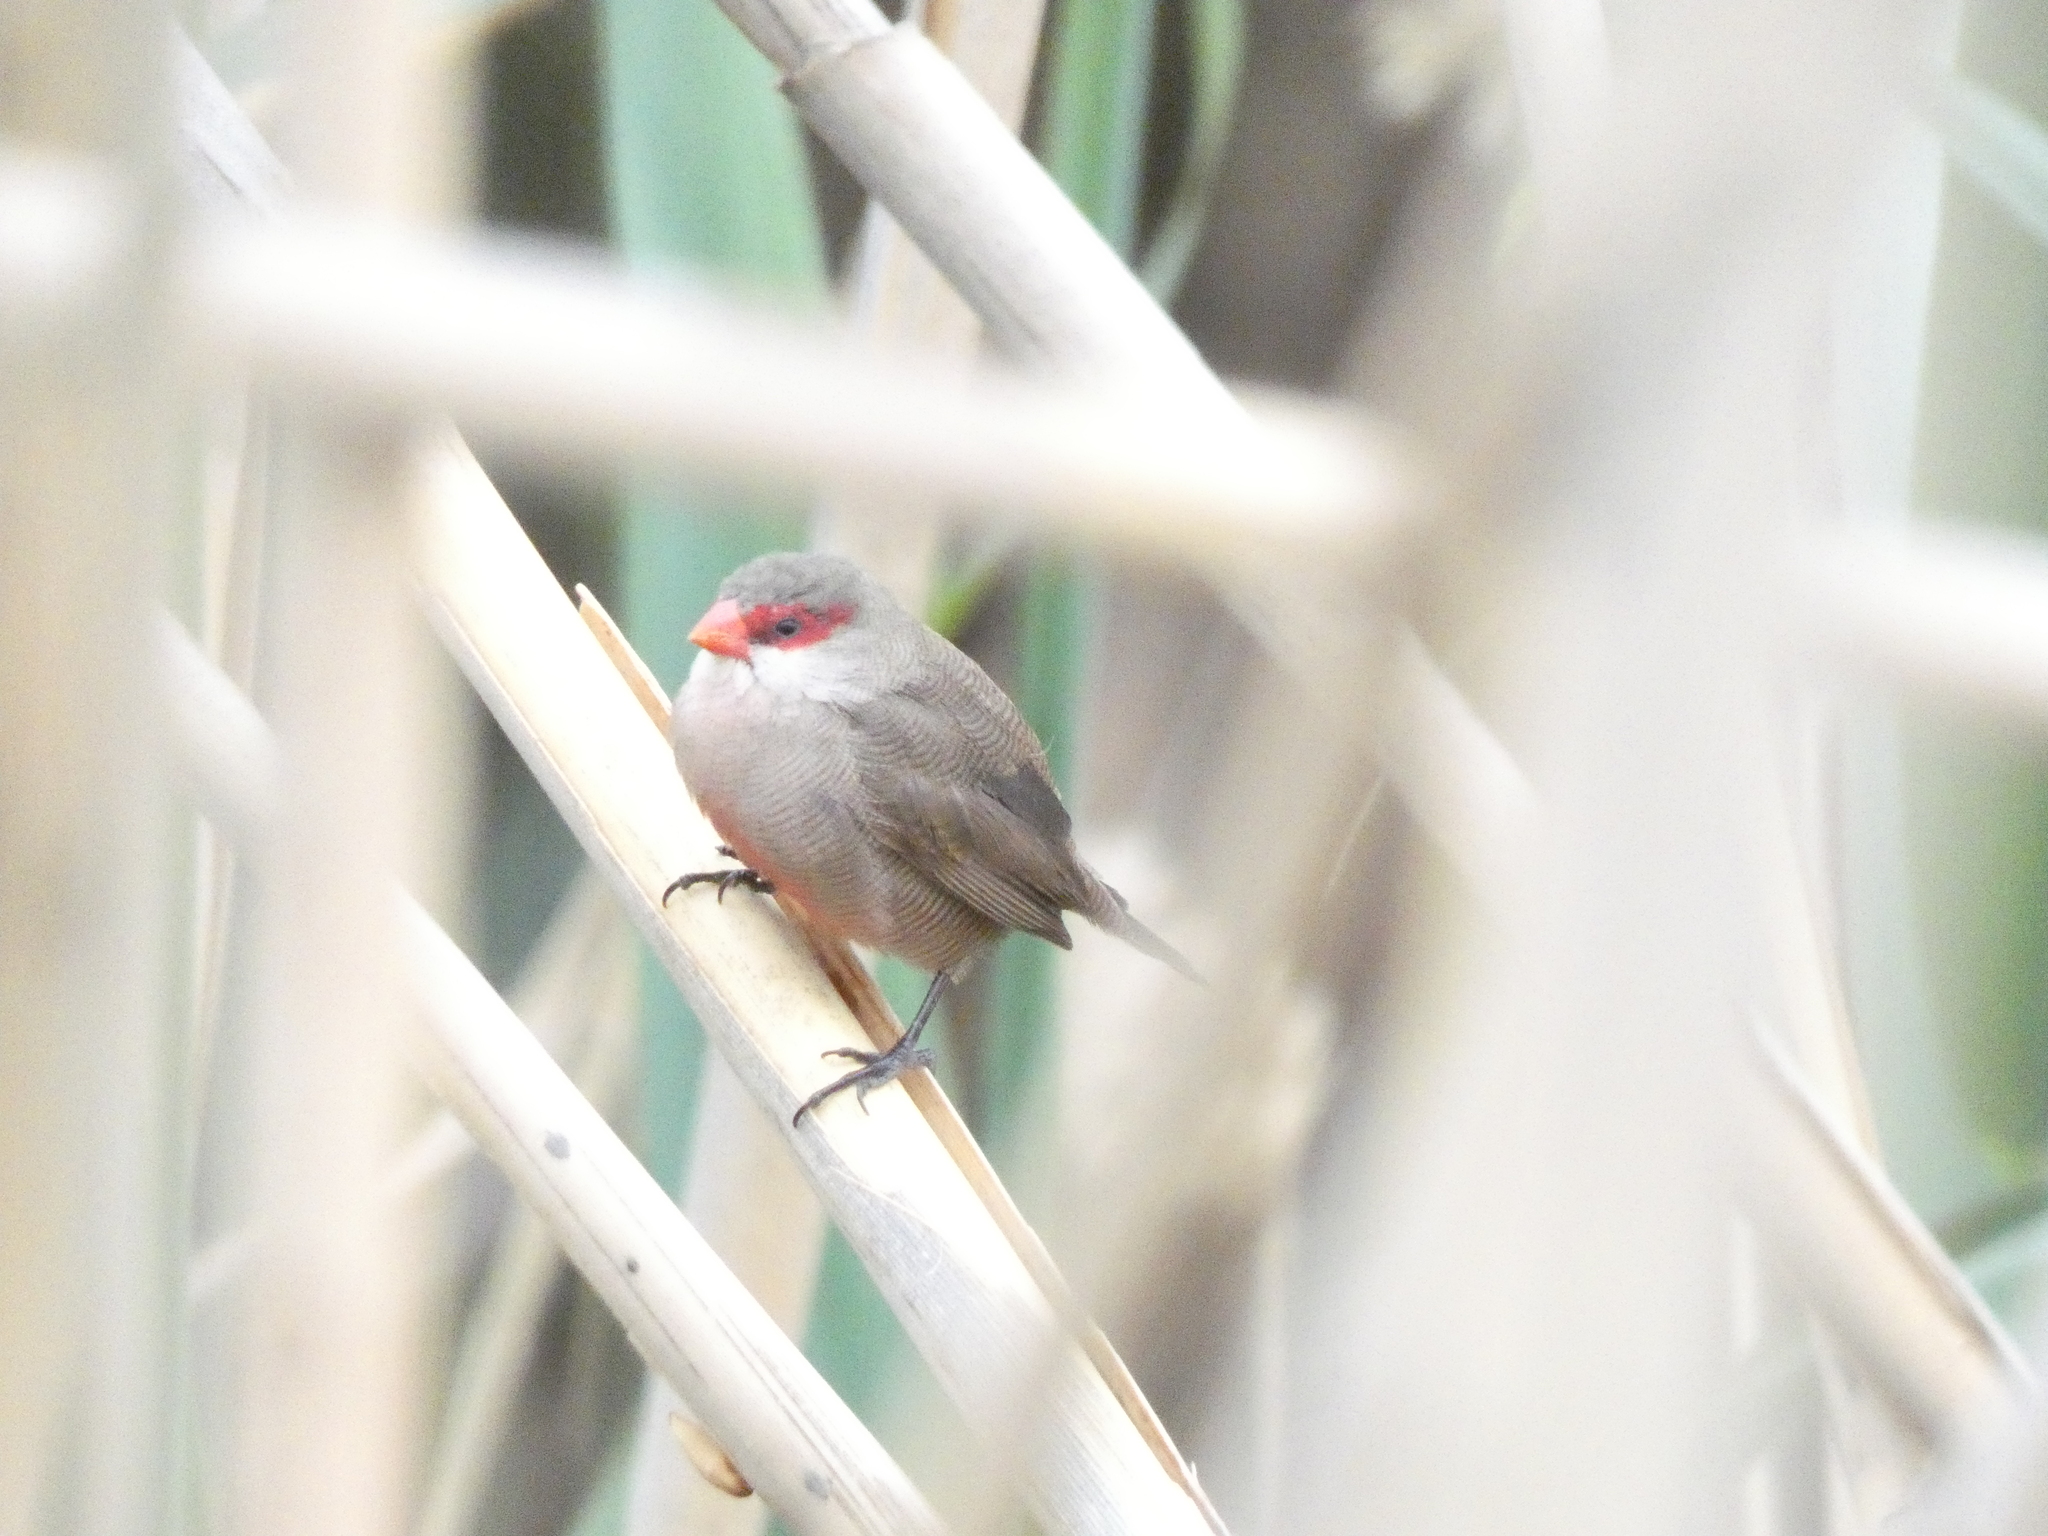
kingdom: Animalia
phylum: Chordata
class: Aves
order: Passeriformes
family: Estrildidae
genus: Estrilda
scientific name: Estrilda astrild
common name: Common waxbill
